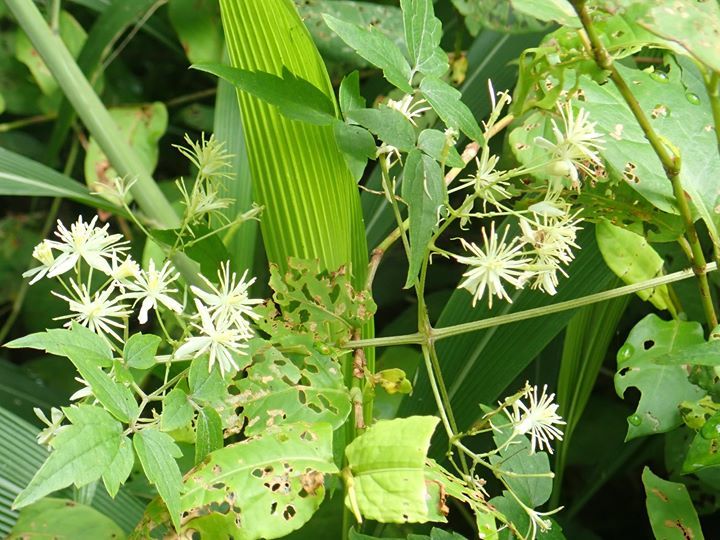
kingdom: Plantae
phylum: Tracheophyta
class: Magnoliopsida
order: Ranunculales
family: Ranunculaceae
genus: Clematis
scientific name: Clematis grata
